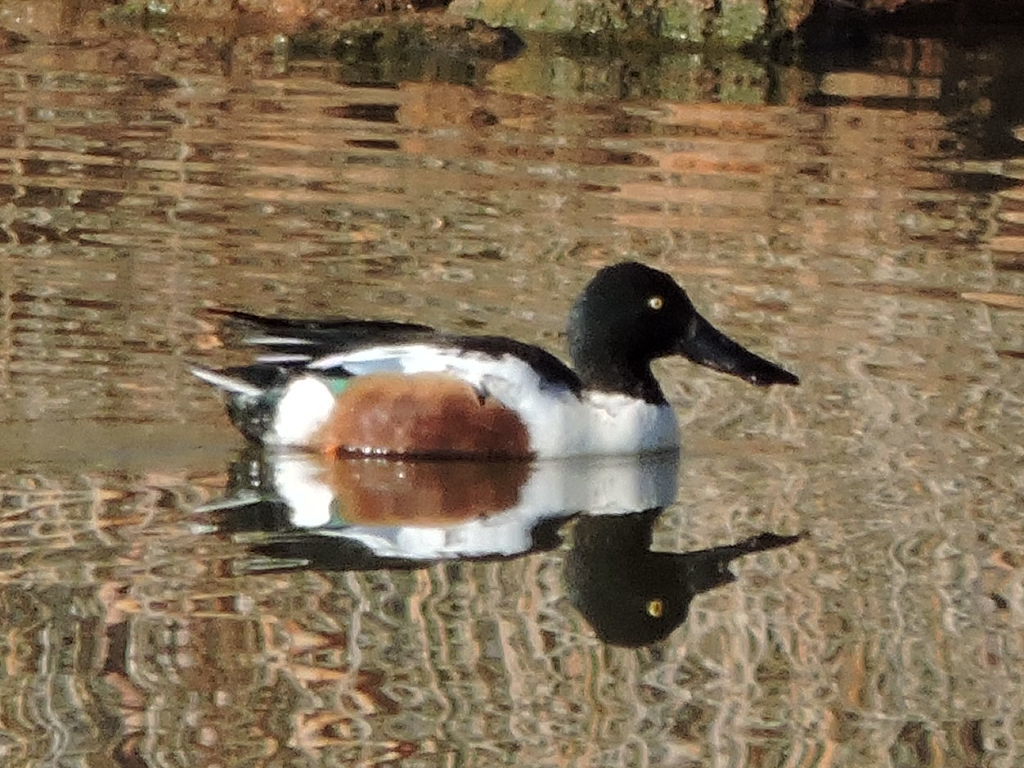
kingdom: Animalia
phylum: Chordata
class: Aves
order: Anseriformes
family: Anatidae
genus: Spatula
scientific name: Spatula clypeata
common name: Northern shoveler
